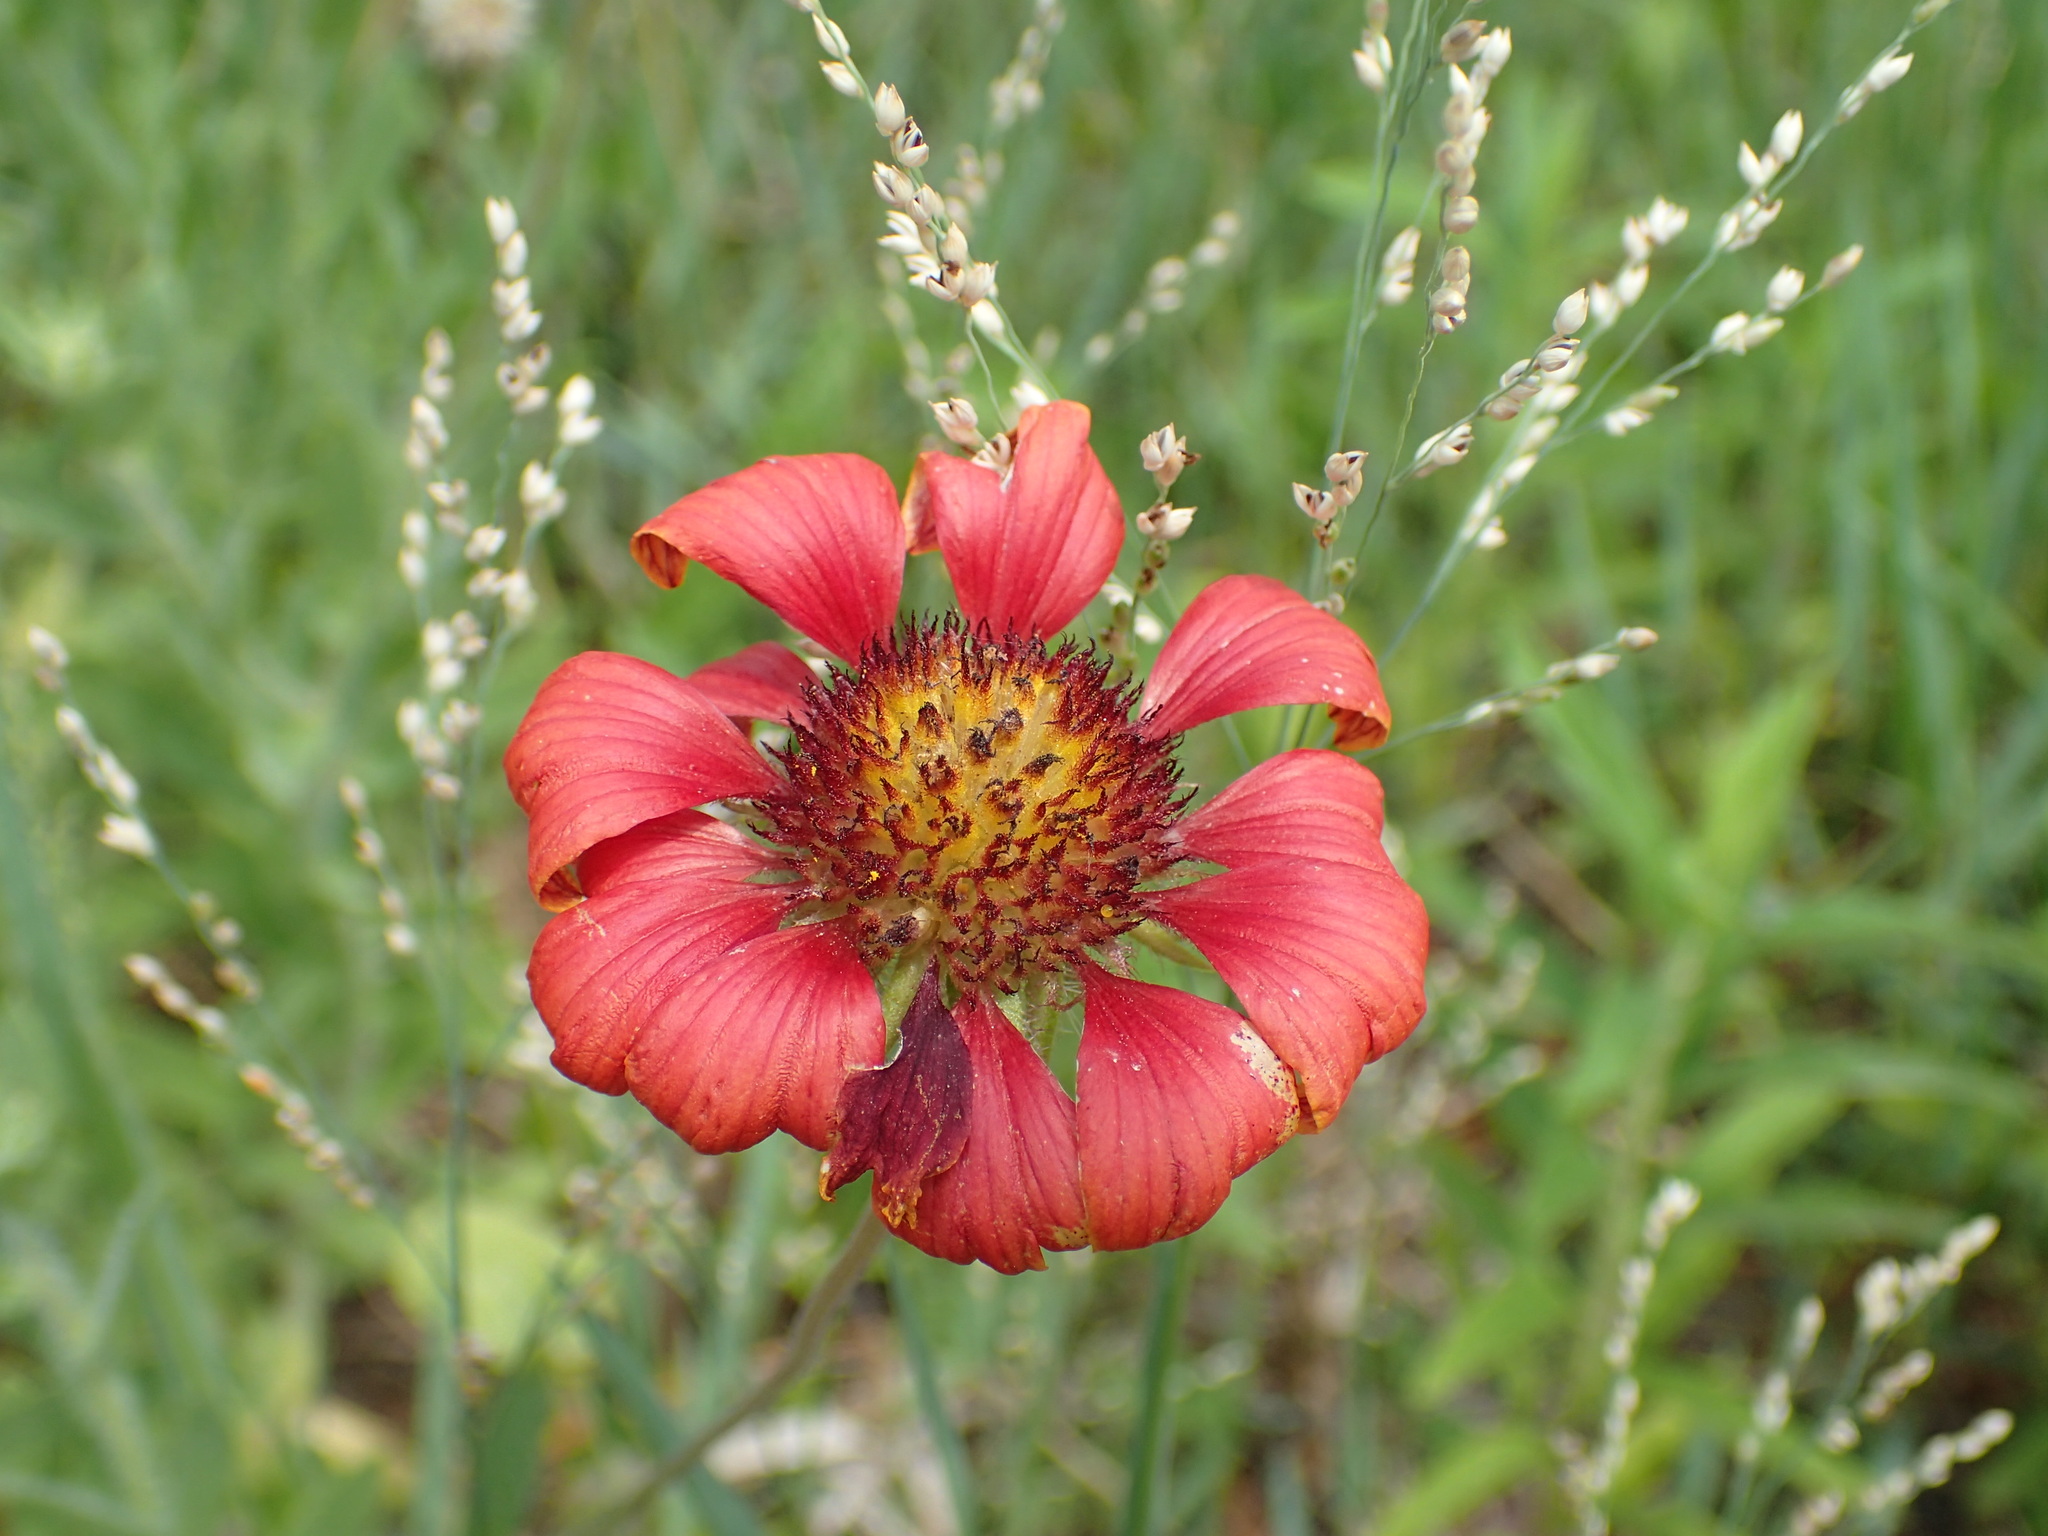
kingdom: Plantae
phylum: Tracheophyta
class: Magnoliopsida
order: Asterales
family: Asteraceae
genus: Gaillardia
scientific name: Gaillardia pulchella
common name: Firewheel
